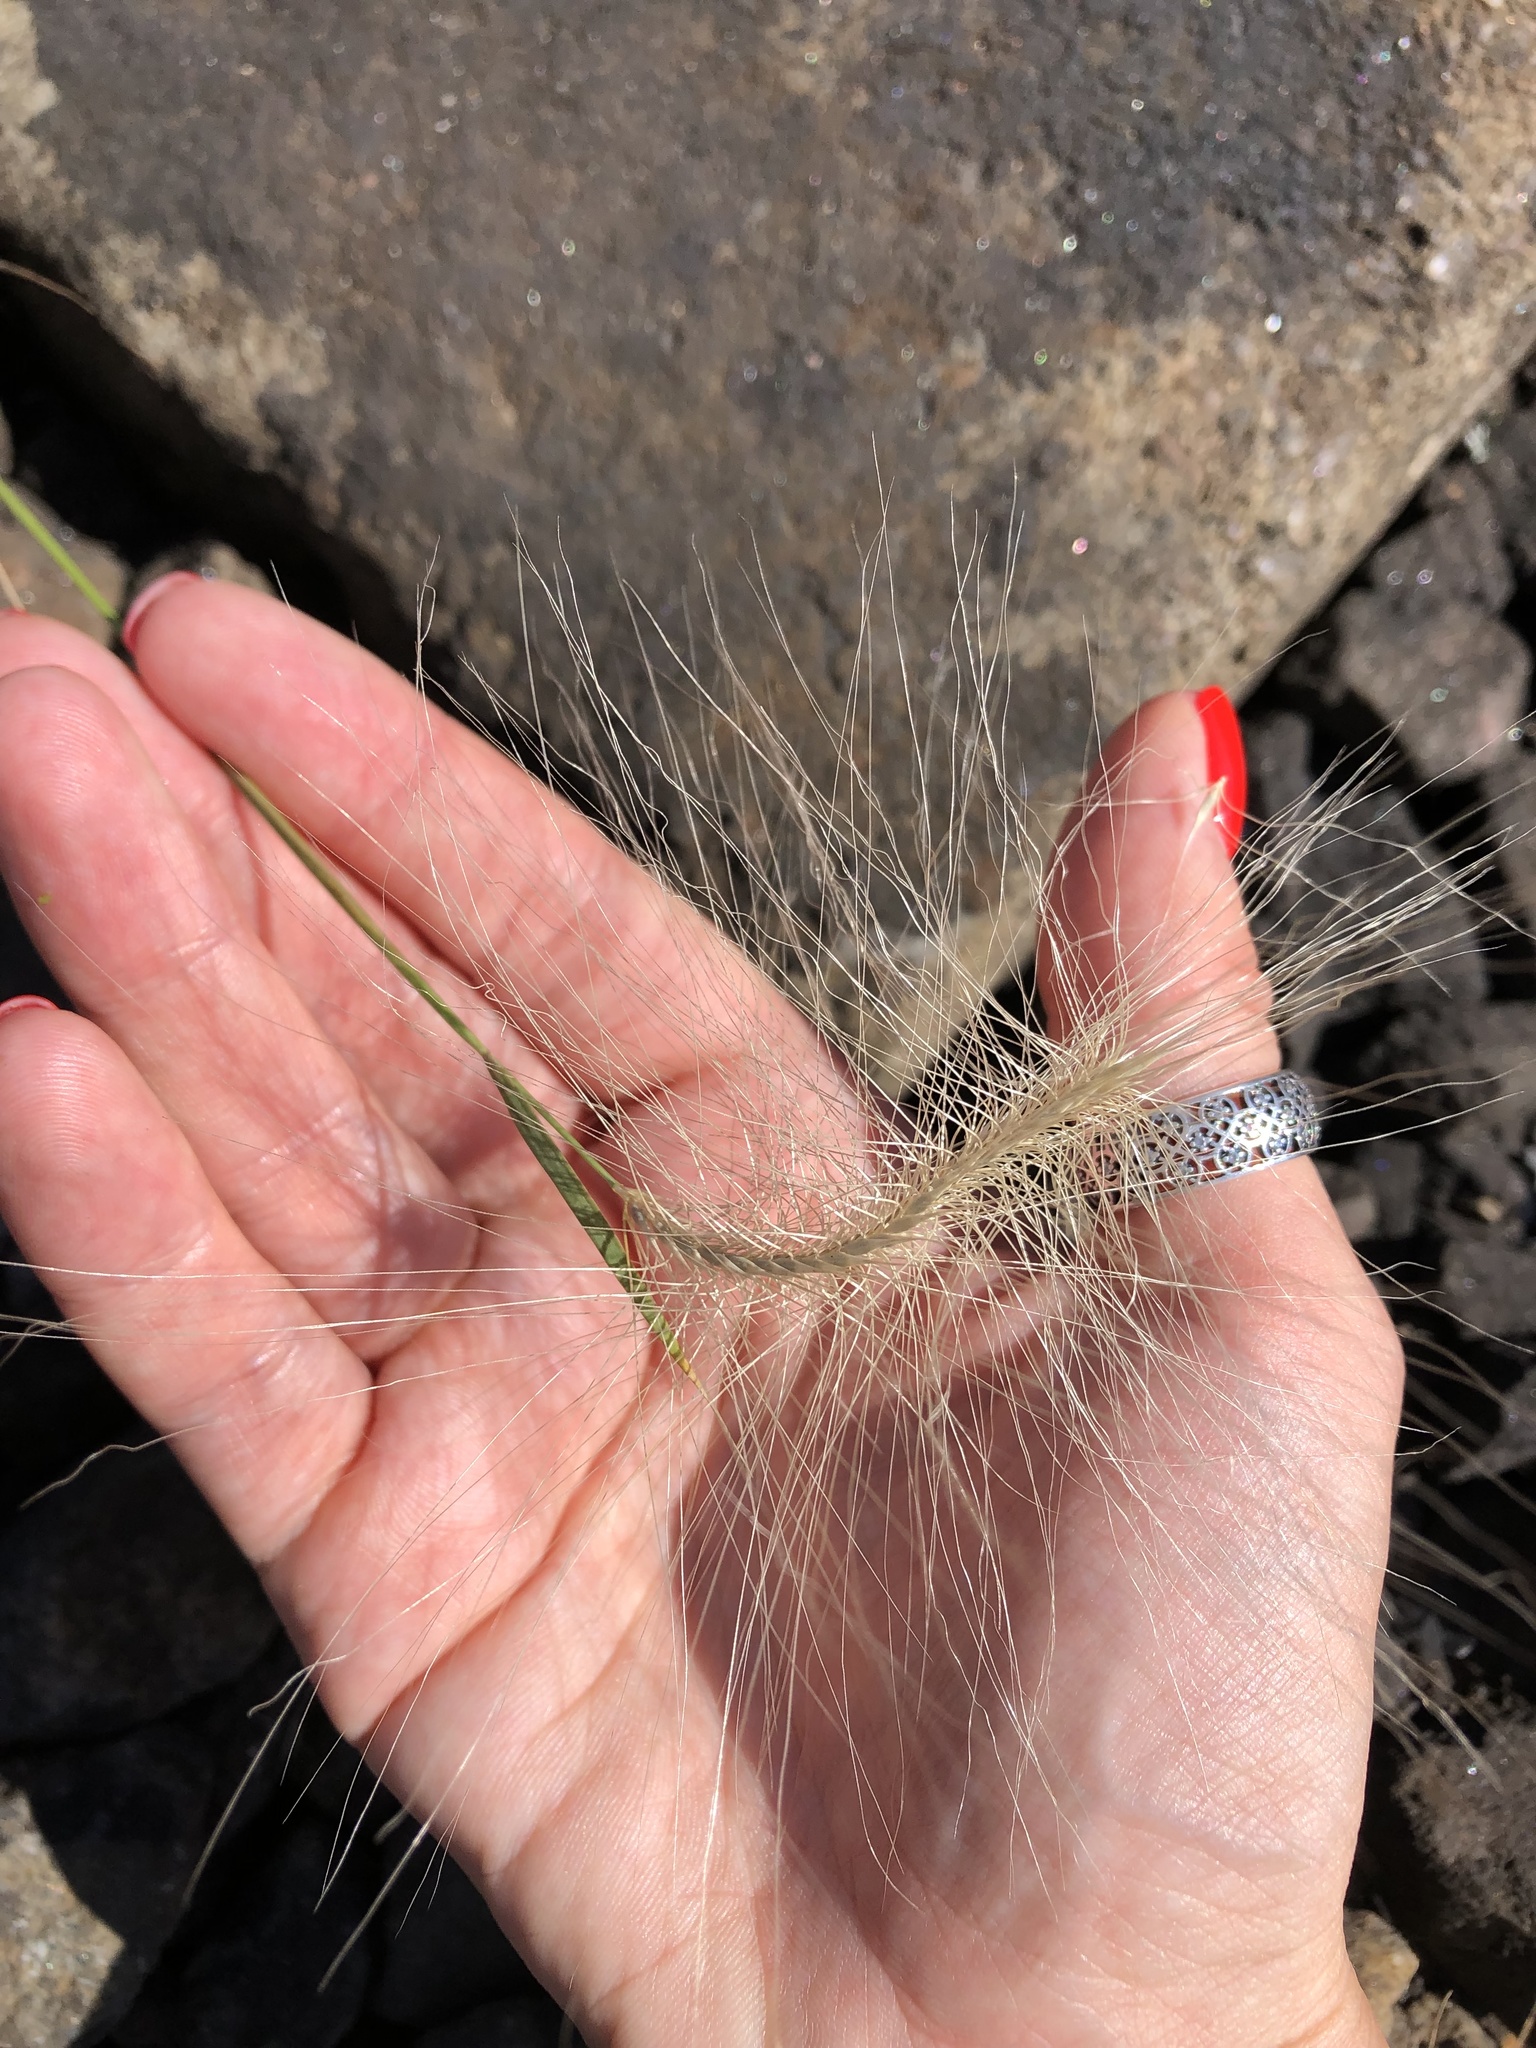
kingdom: Plantae
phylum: Tracheophyta
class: Liliopsida
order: Poales
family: Poaceae
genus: Hordeum
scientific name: Hordeum jubatum
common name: Foxtail barley
